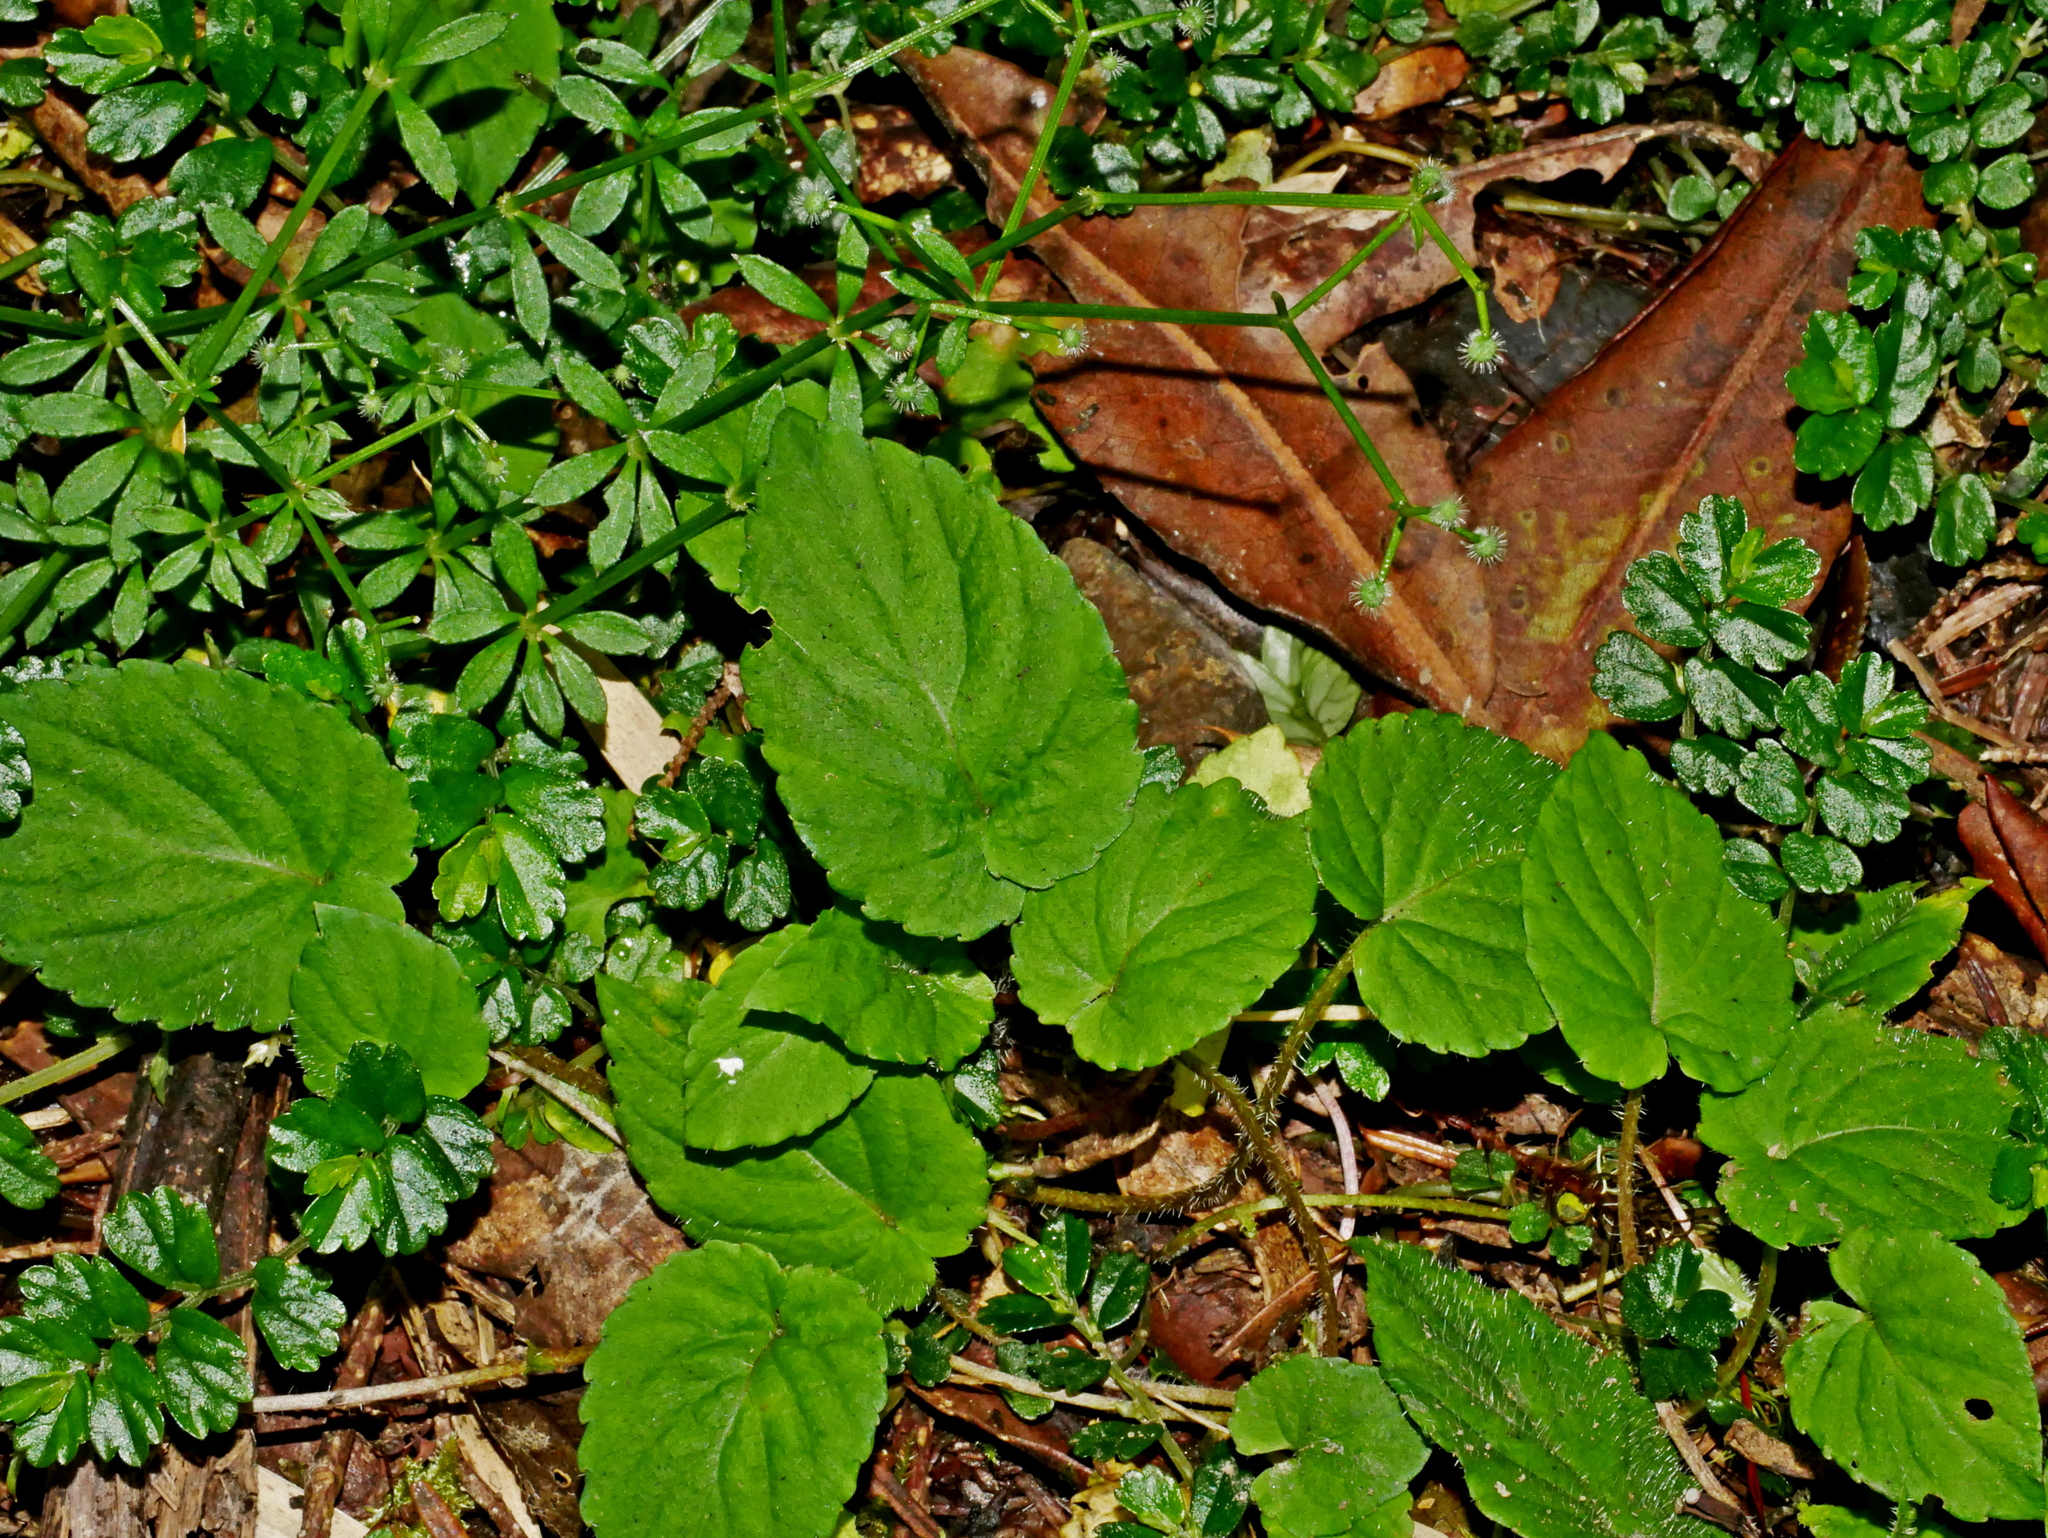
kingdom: Plantae
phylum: Tracheophyta
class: Magnoliopsida
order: Malpighiales
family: Violaceae
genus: Viola
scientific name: Viola adenothrix
